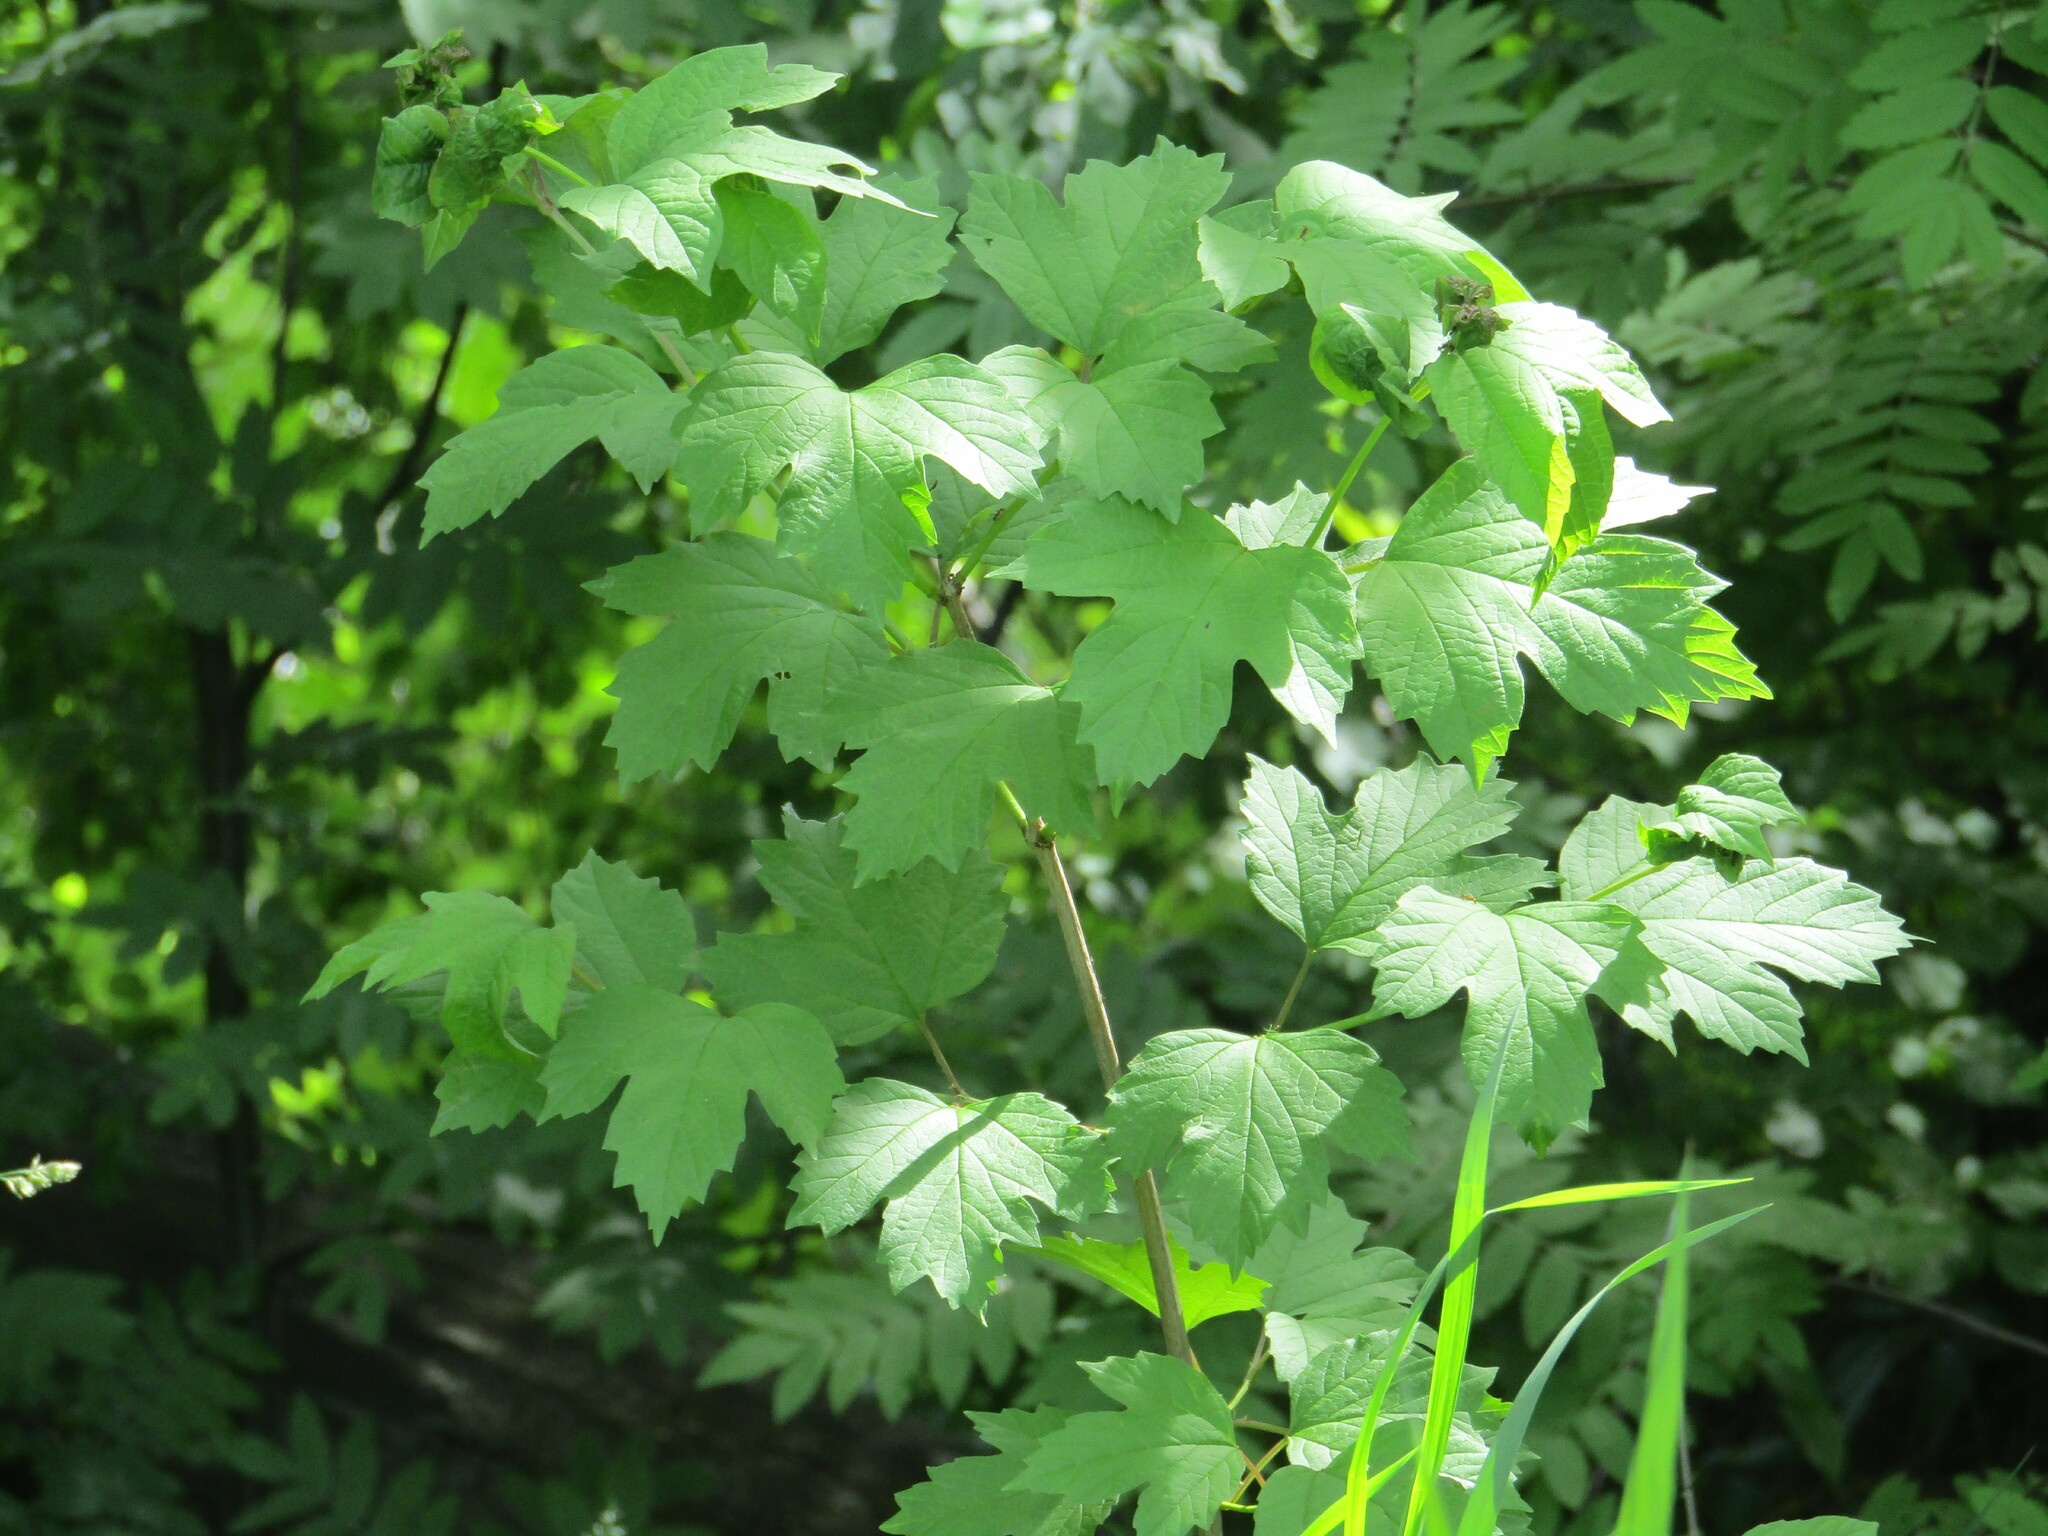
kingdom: Plantae
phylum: Tracheophyta
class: Magnoliopsida
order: Dipsacales
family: Viburnaceae
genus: Viburnum
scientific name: Viburnum opulus
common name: Guelder-rose
